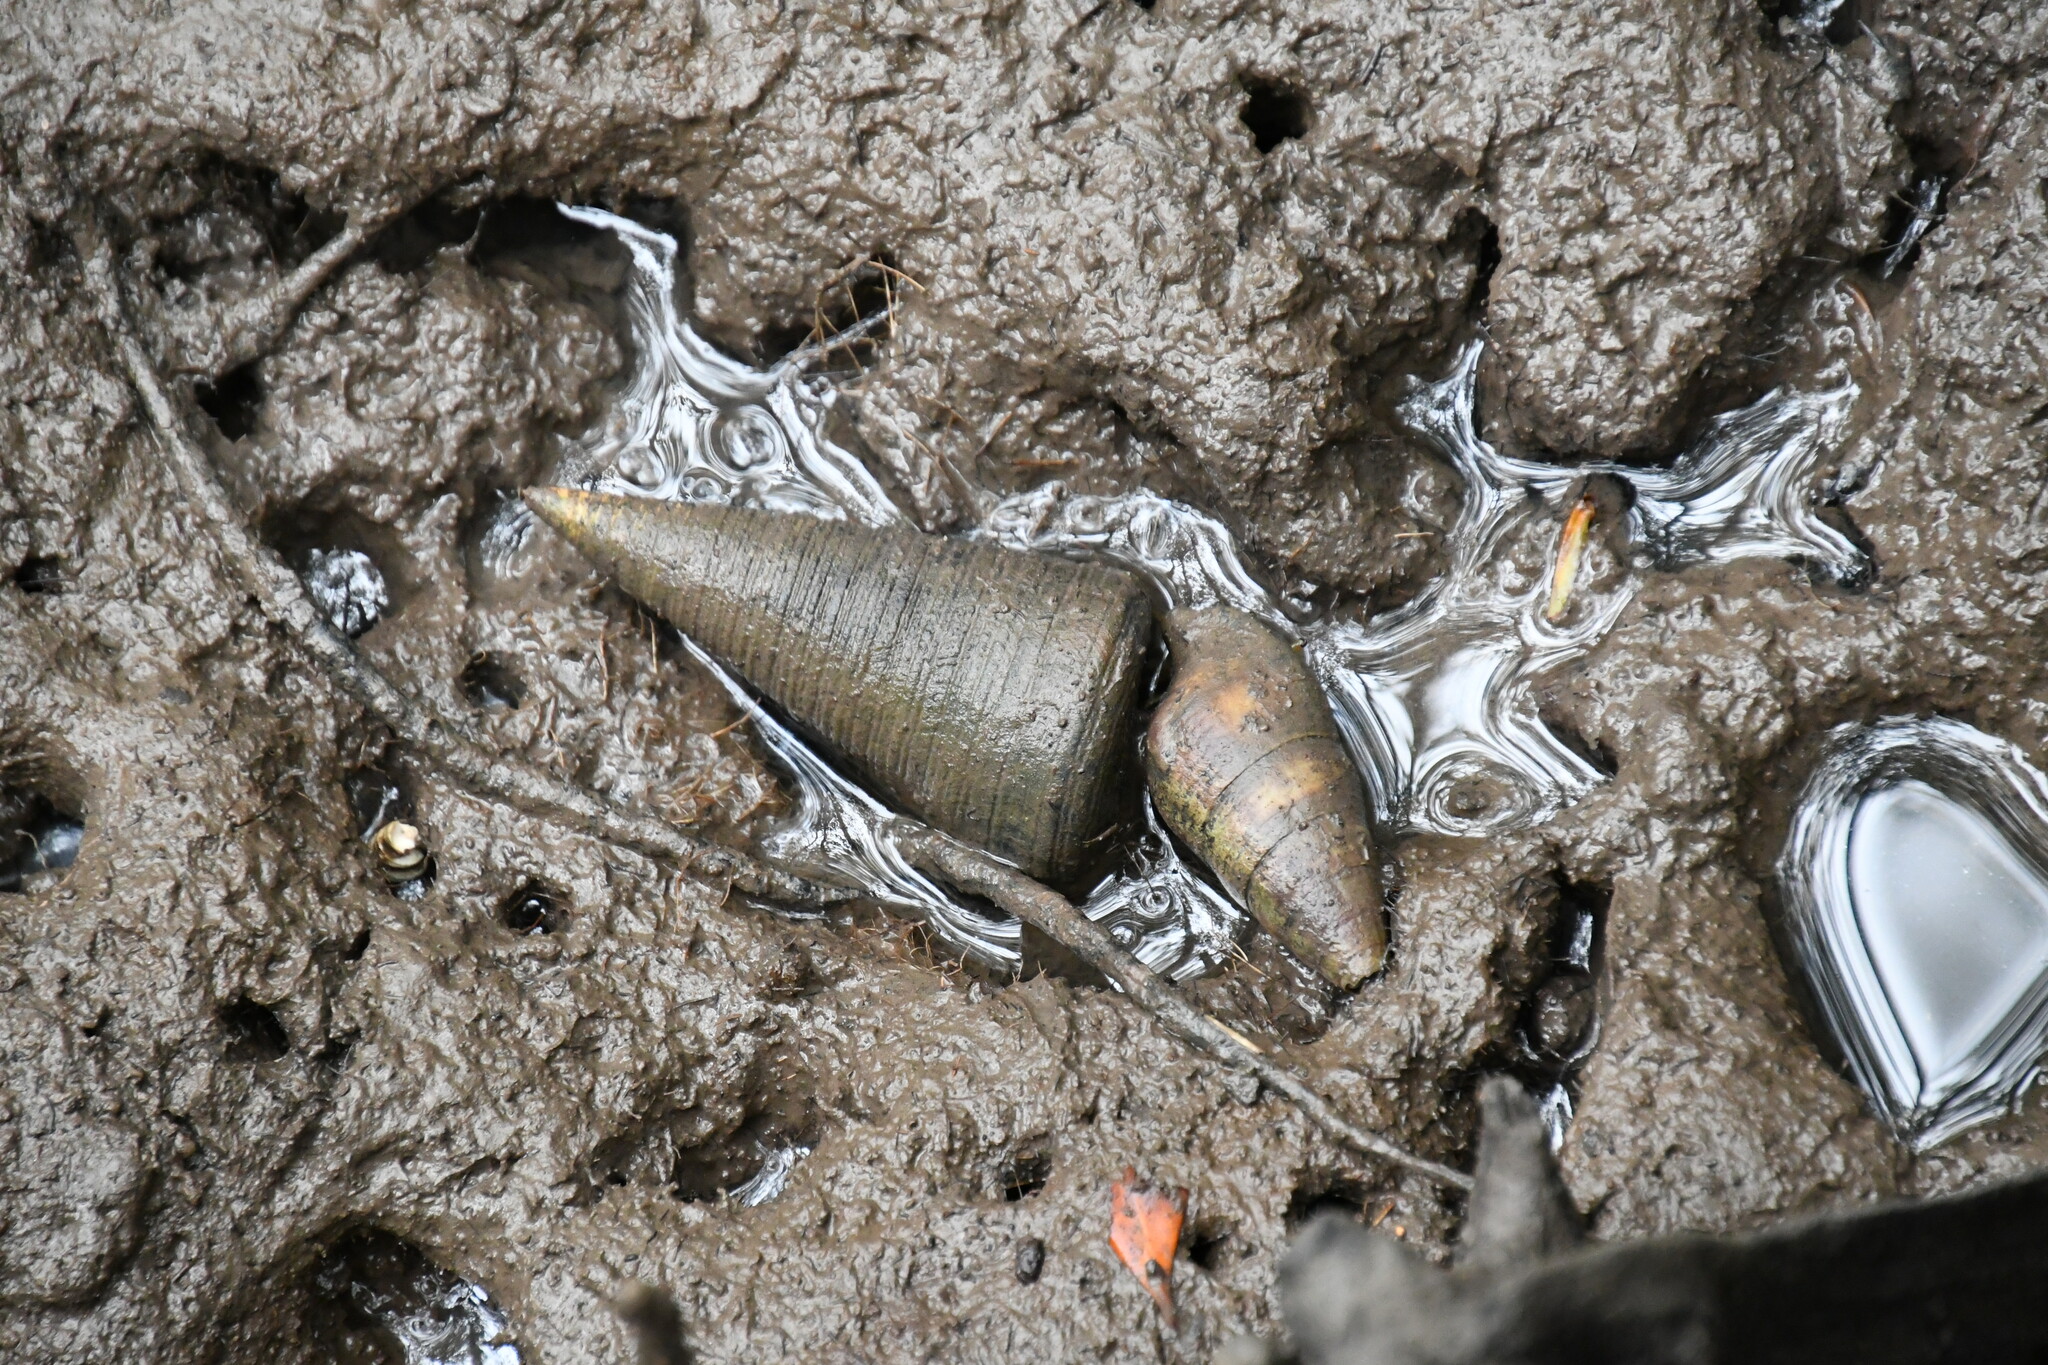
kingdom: Animalia
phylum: Mollusca
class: Gastropoda
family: Potamididae
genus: Telescopium
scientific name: Telescopium telescopium
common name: Telescope creeper
